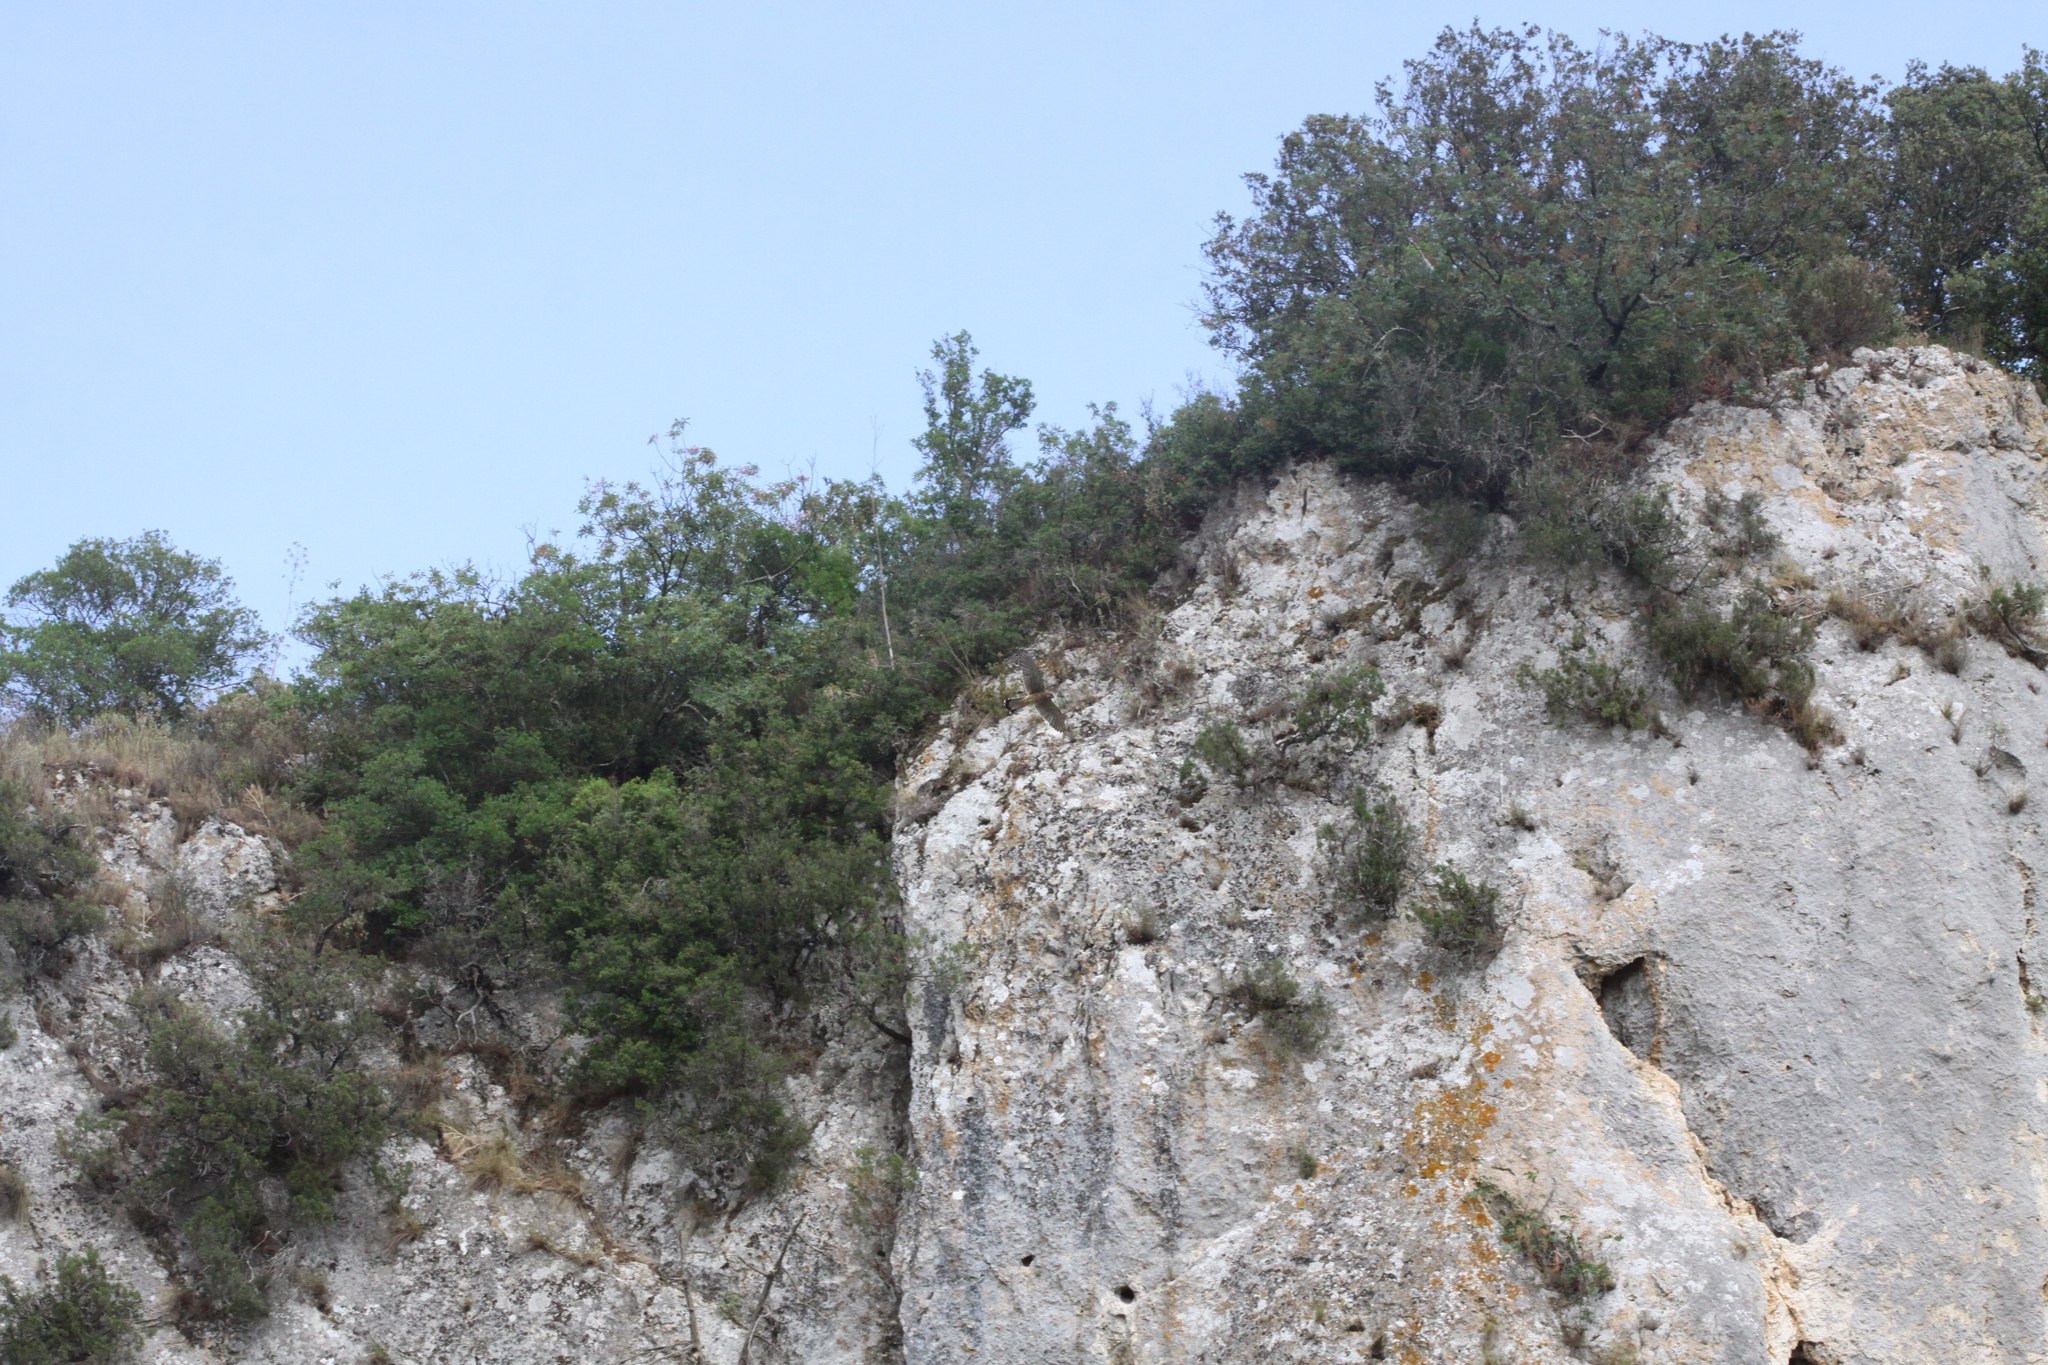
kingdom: Animalia
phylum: Chordata
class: Aves
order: Falconiformes
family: Falconidae
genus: Falco
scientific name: Falco tinnunculus
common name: Common kestrel
